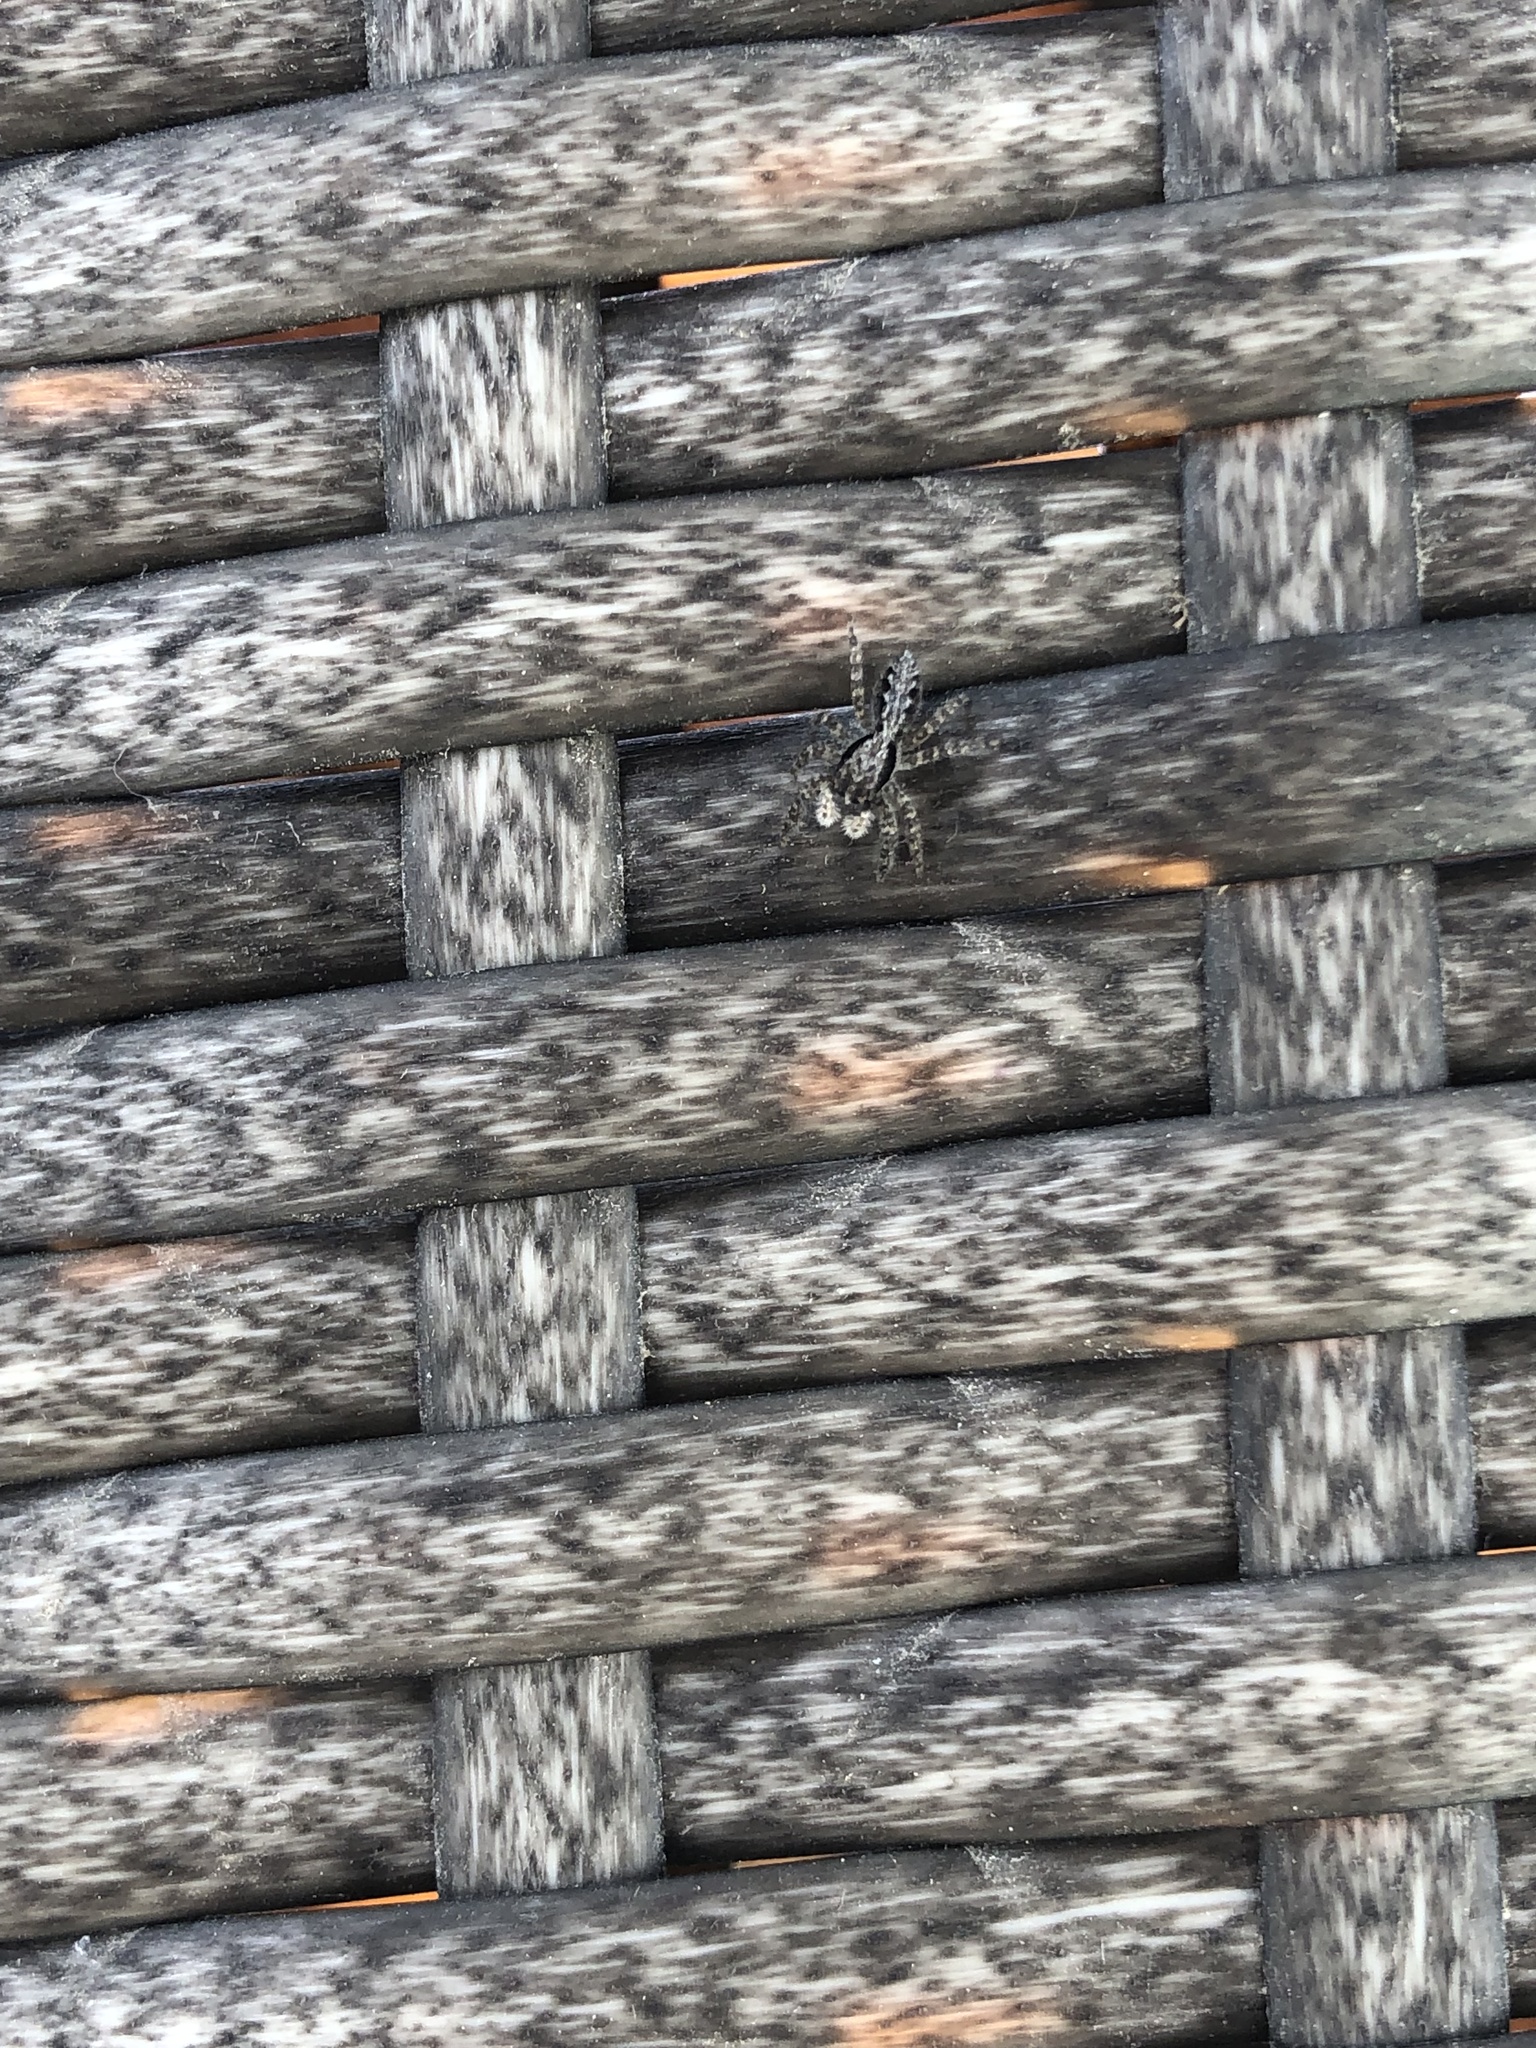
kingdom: Animalia
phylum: Arthropoda
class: Arachnida
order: Araneae
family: Salticidae
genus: Platycryptus
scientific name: Platycryptus californicus
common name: Jumping spiders
